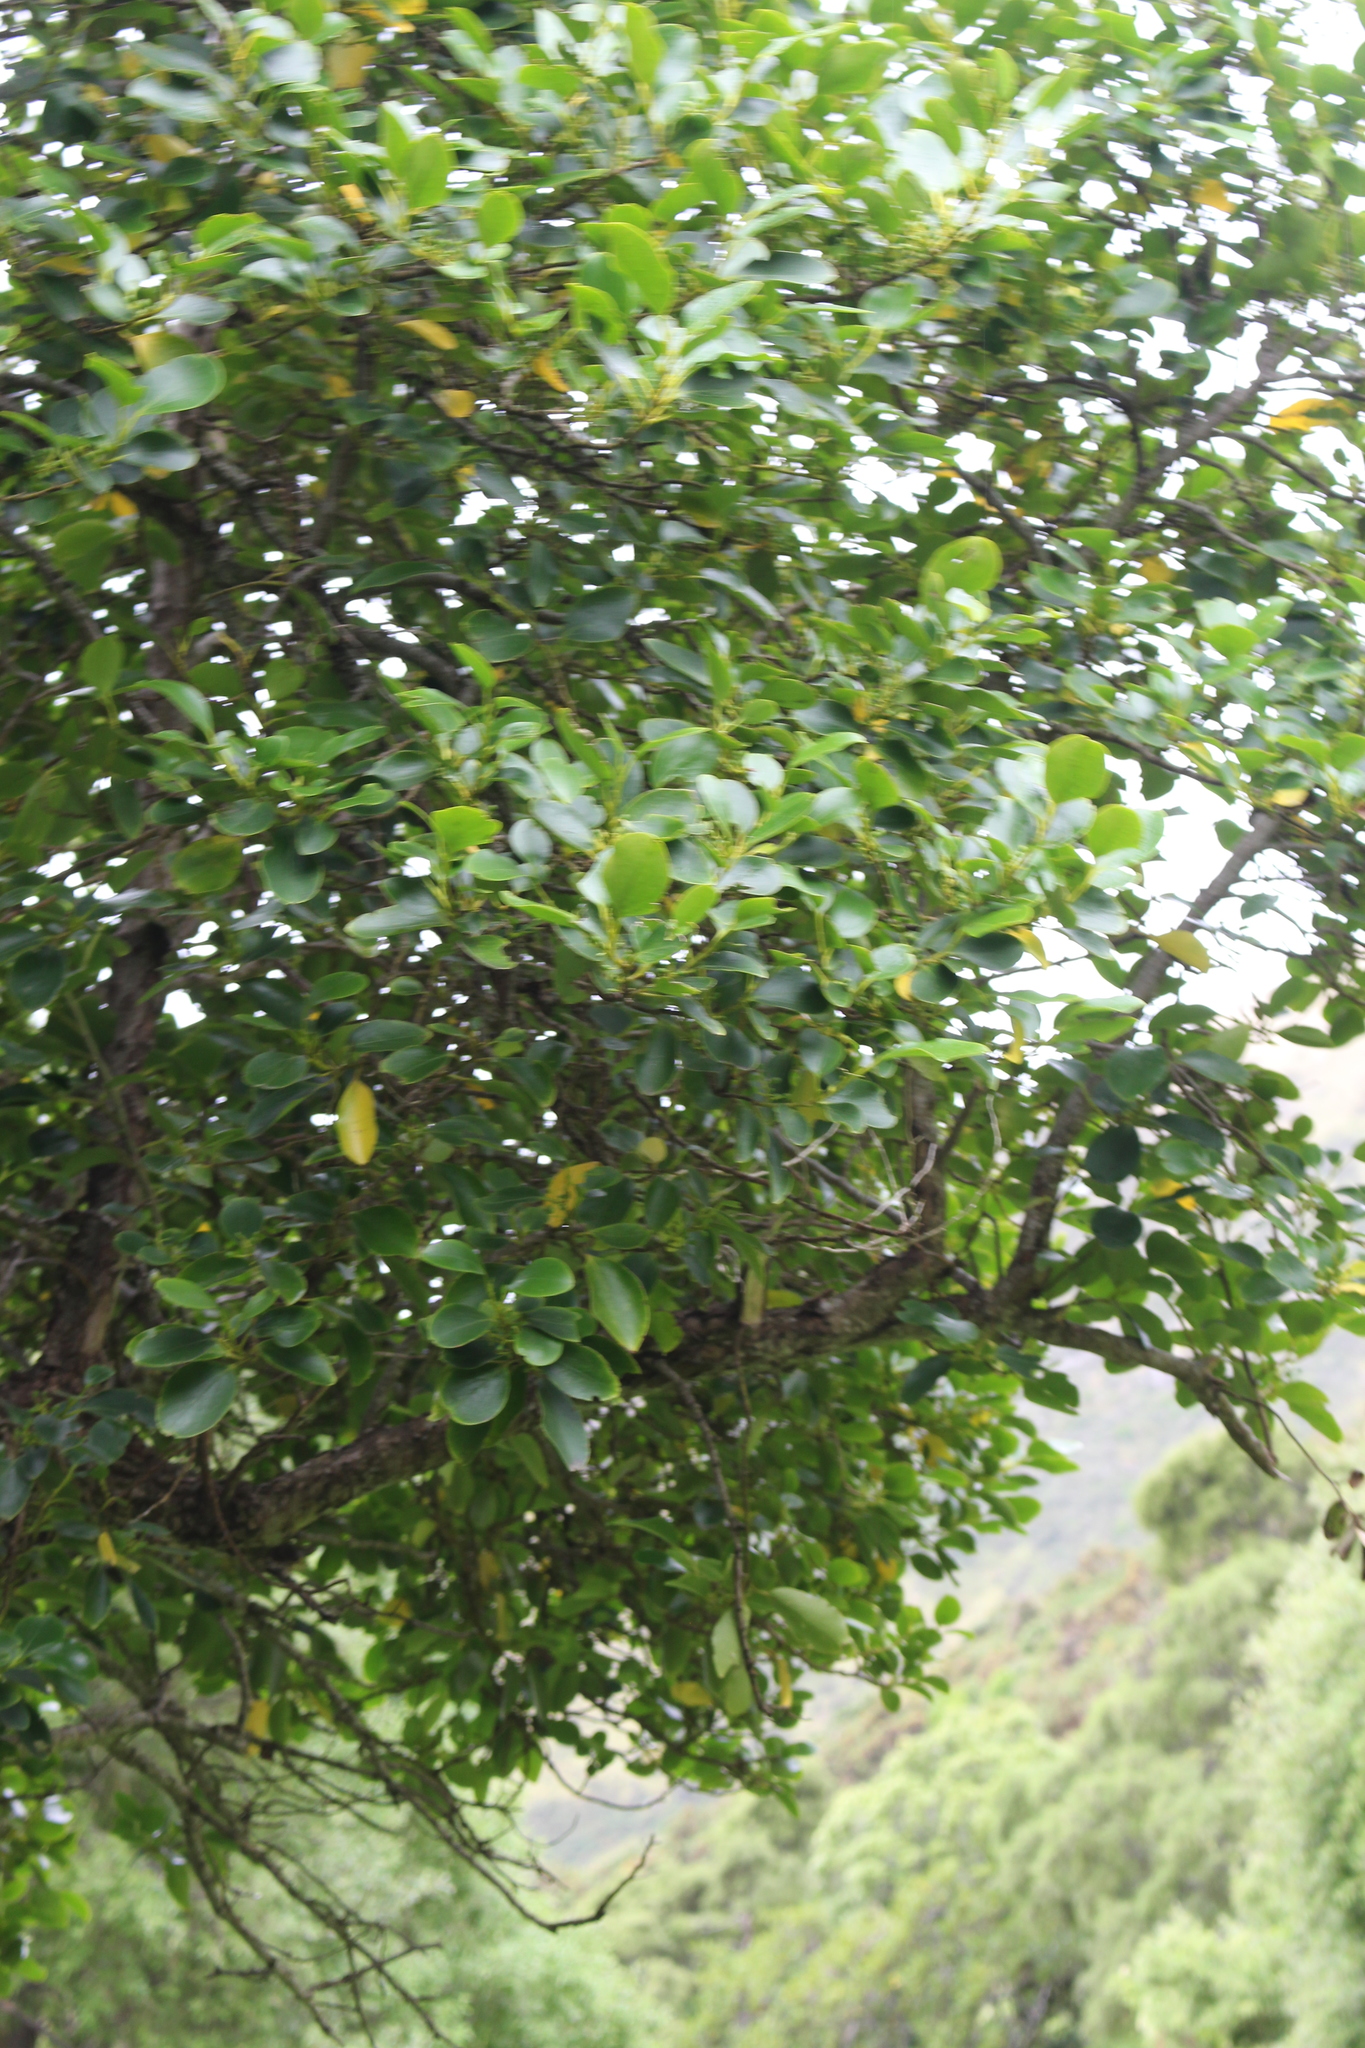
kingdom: Plantae
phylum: Tracheophyta
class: Magnoliopsida
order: Apiales
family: Griseliniaceae
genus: Griselinia
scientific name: Griselinia littoralis
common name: New zealand broadleaf
